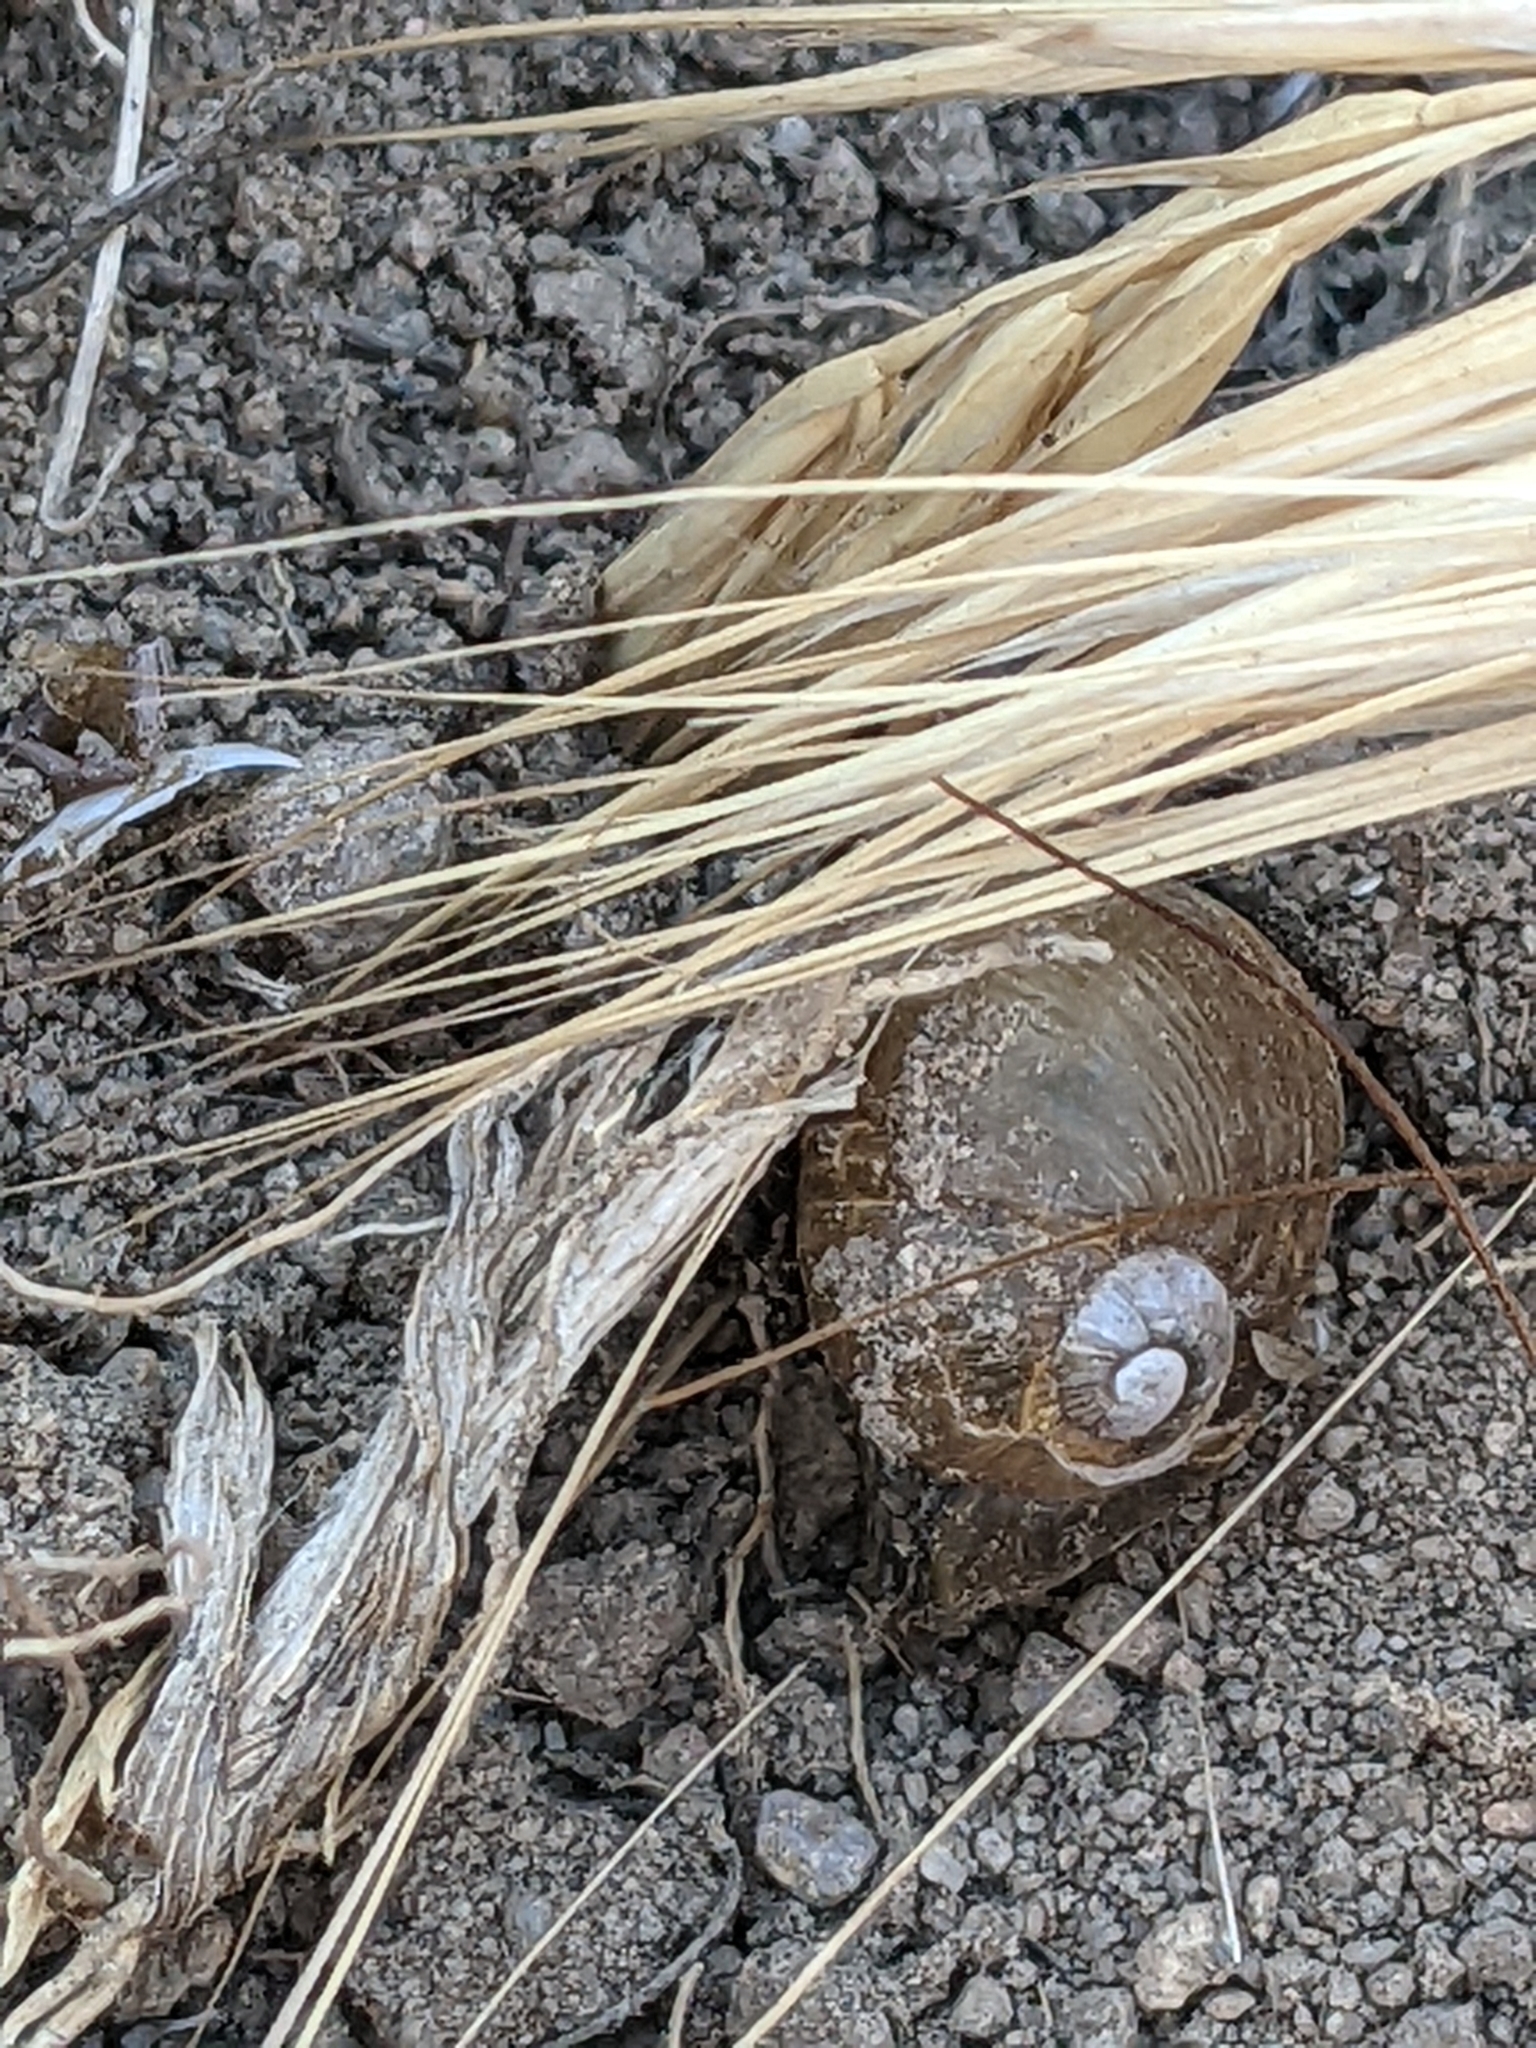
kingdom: Animalia
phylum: Mollusca
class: Gastropoda
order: Stylommatophora
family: Helicidae
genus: Cantareus
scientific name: Cantareus apertus
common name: Green gardensnail
